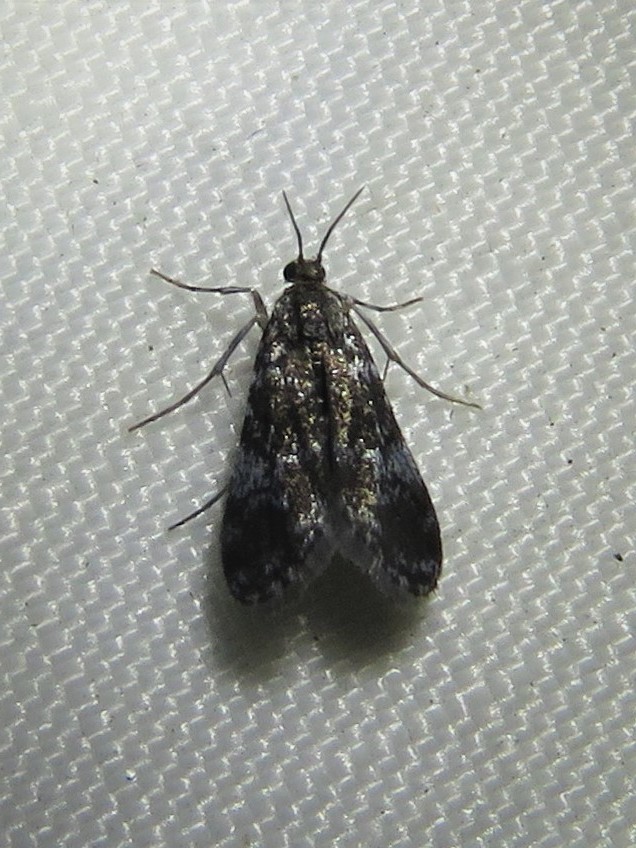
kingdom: Animalia
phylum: Arthropoda
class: Insecta
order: Lepidoptera
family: Crambidae
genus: Elophila
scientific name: Elophila tinealis
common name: Black duckweed moth
